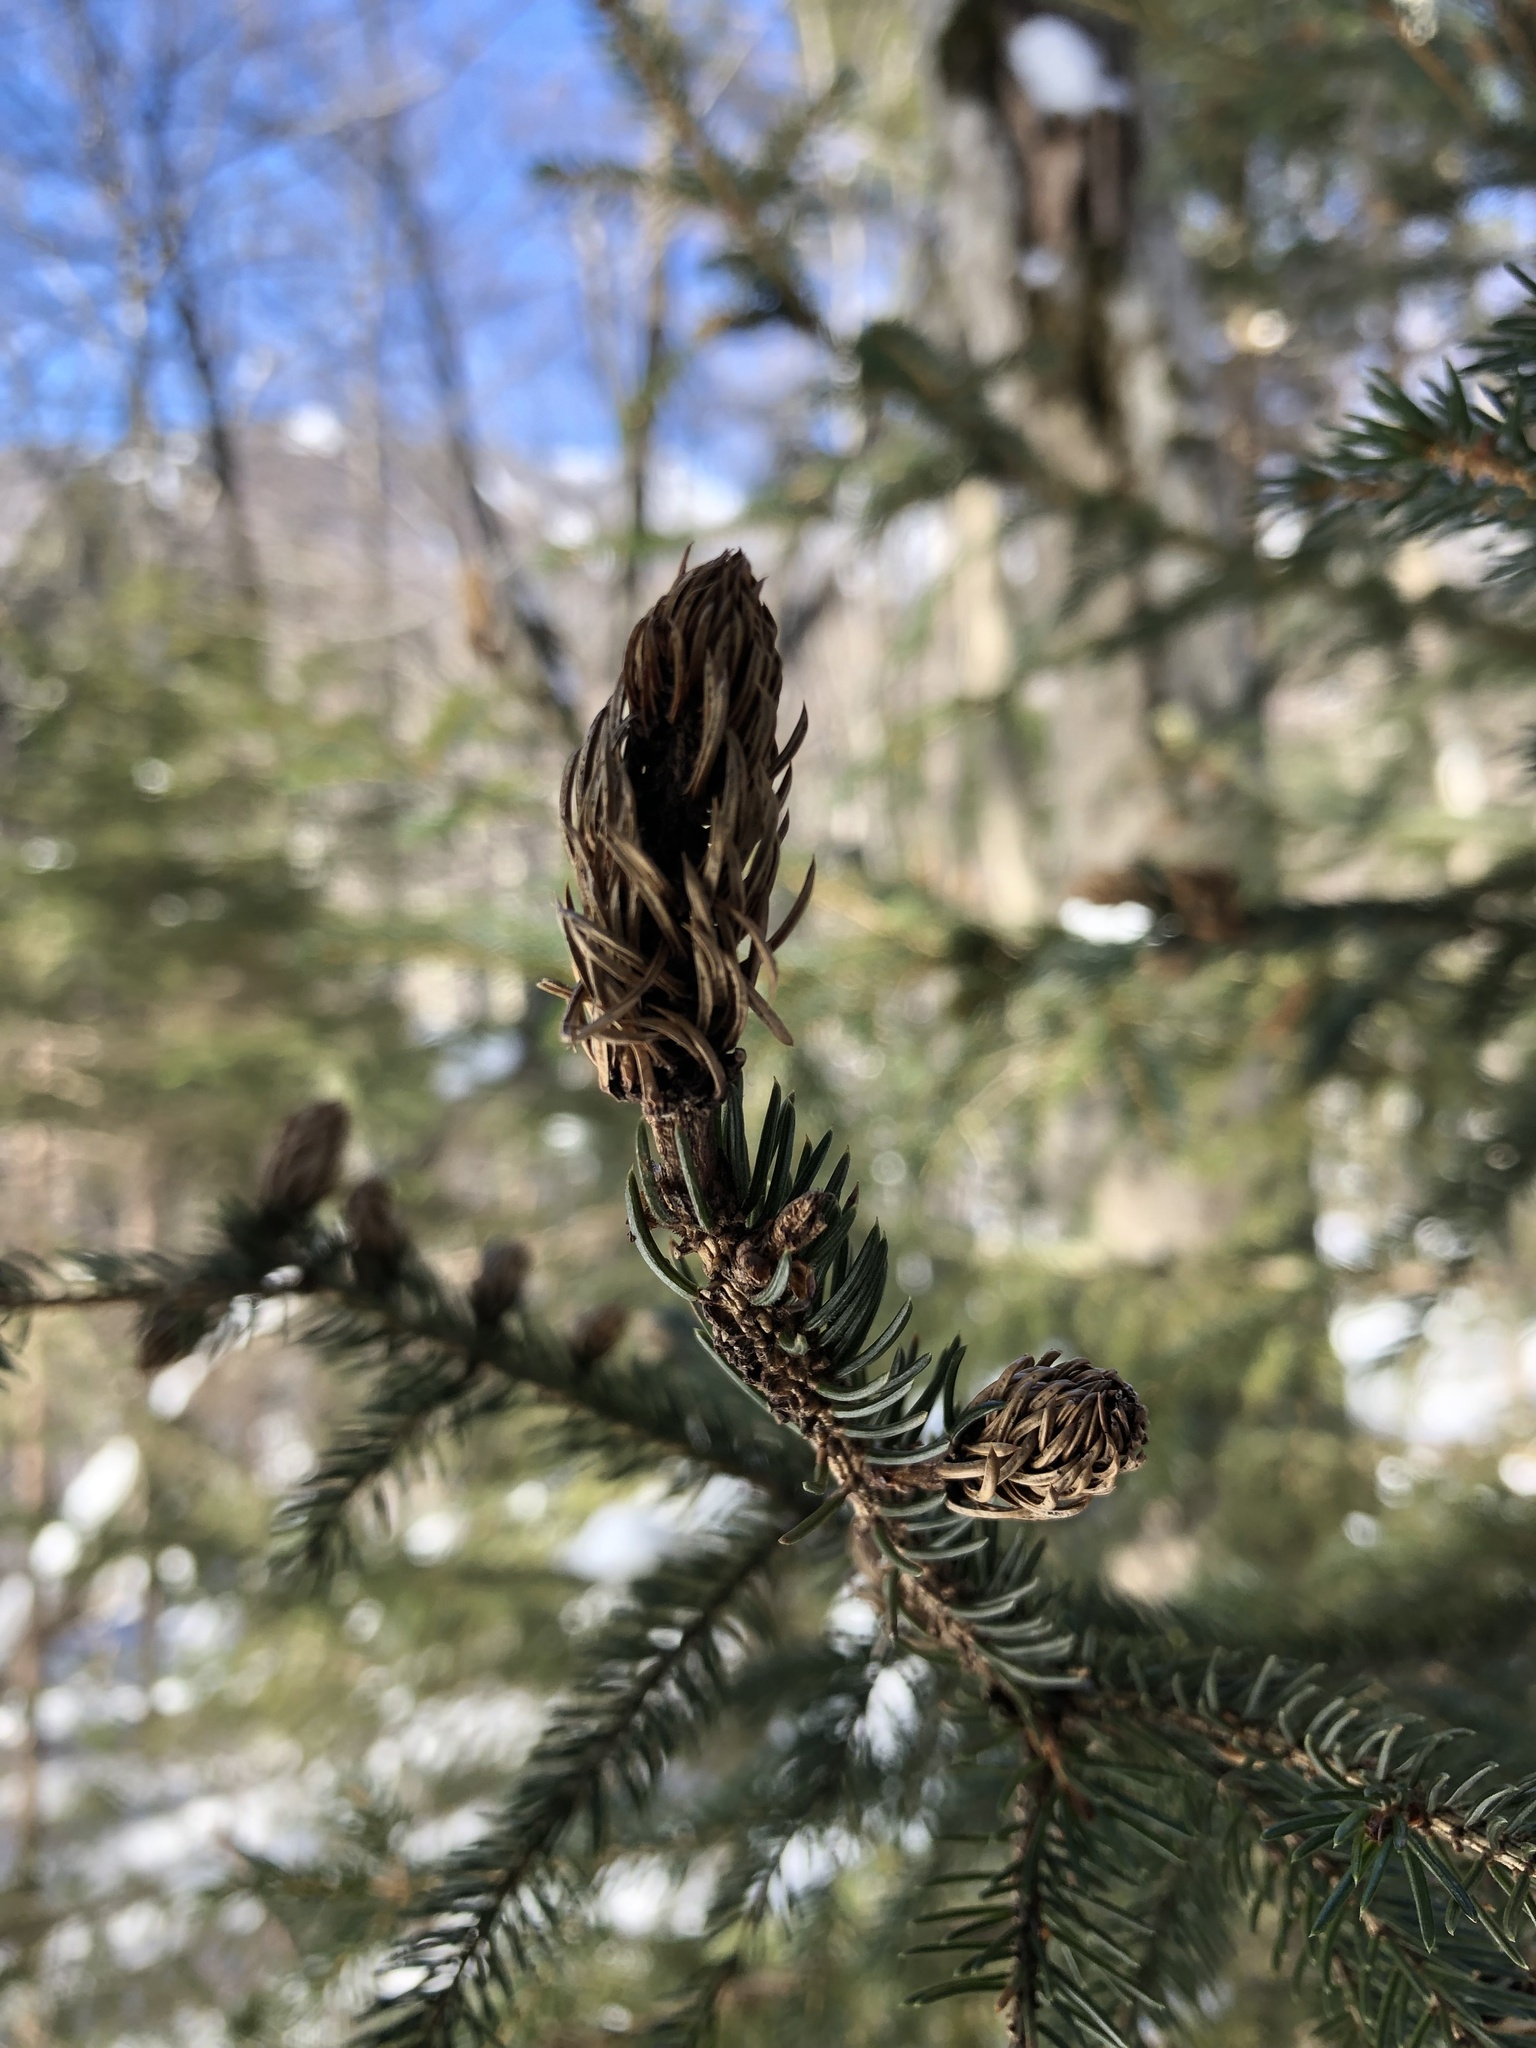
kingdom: Animalia
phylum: Arthropoda
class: Insecta
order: Hemiptera
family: Adelgidae
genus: Adelges
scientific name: Adelges abietis
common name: Eastern spruce gall adelgid
